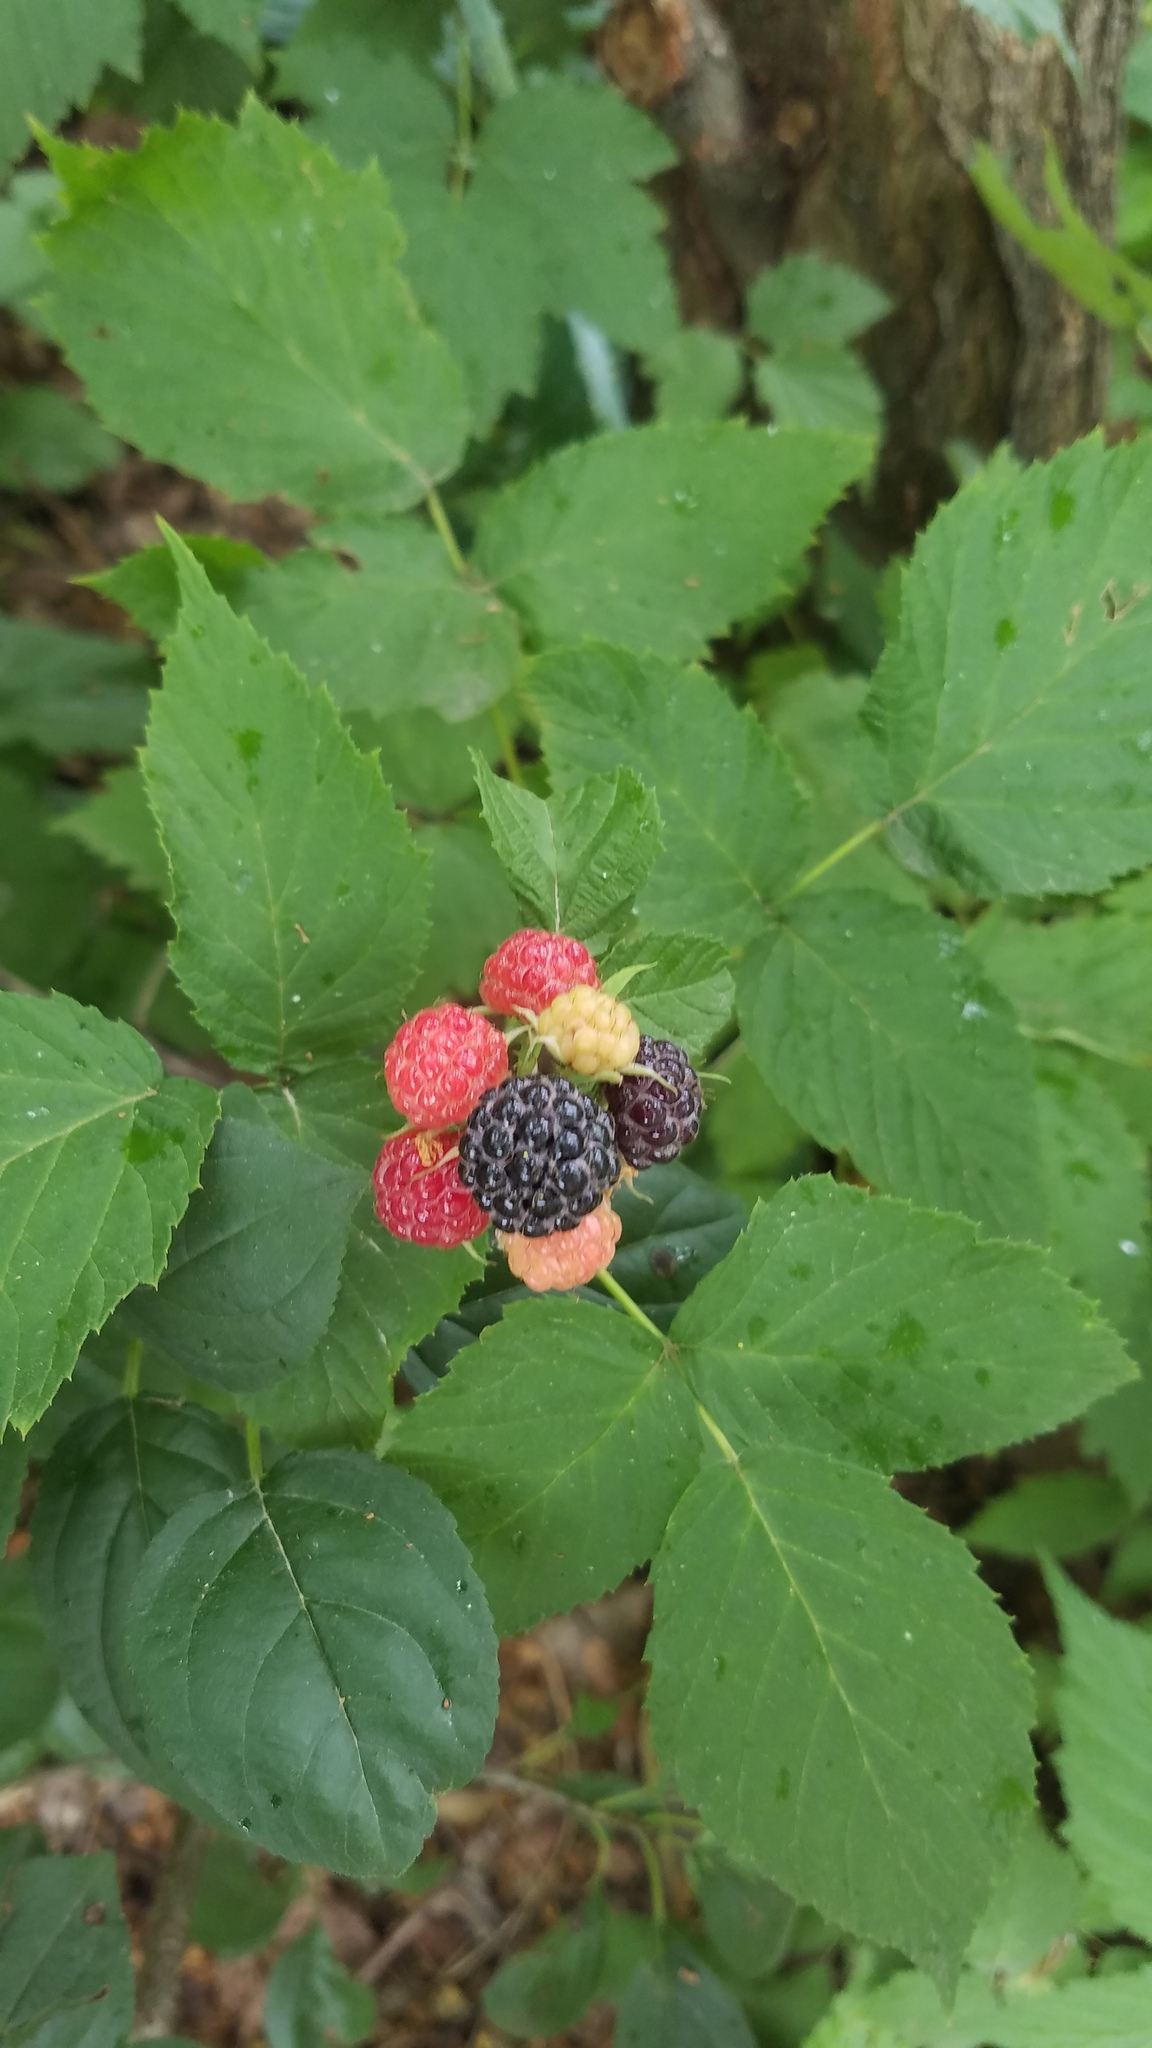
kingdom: Plantae
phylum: Tracheophyta
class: Magnoliopsida
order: Rosales
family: Rosaceae
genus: Rubus
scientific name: Rubus occidentalis
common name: Black raspberry
